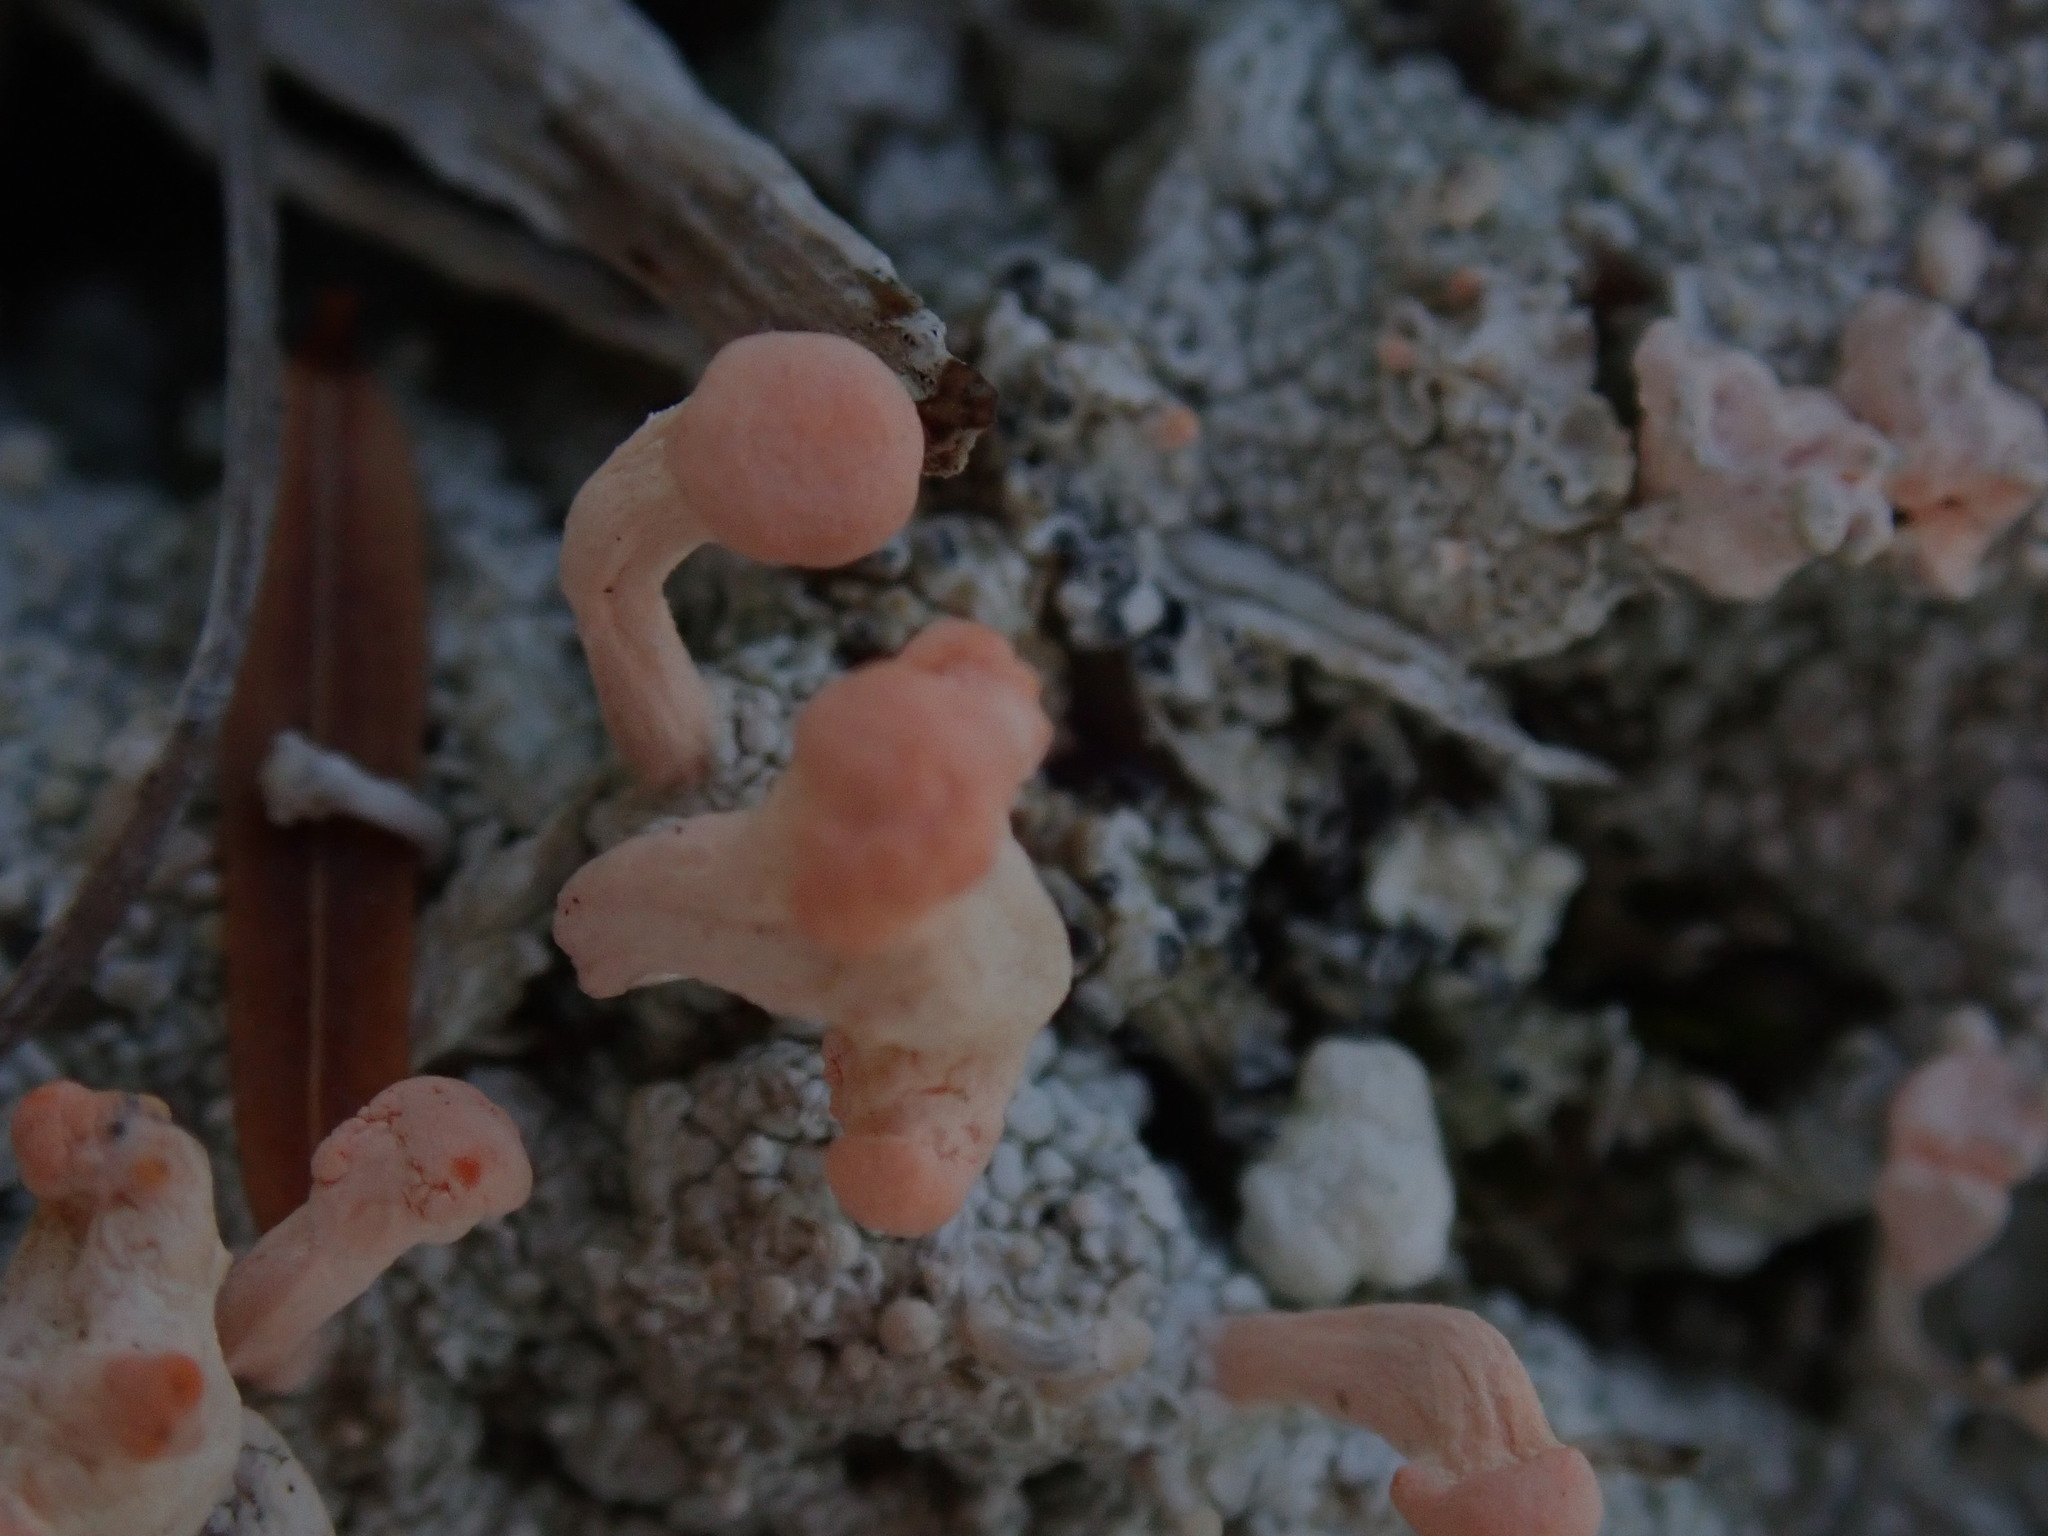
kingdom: Fungi
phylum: Ascomycota
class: Lecanoromycetes
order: Pertusariales
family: Icmadophilaceae
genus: Dibaeis
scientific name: Dibaeis baeomyces
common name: Pink earth lichen
